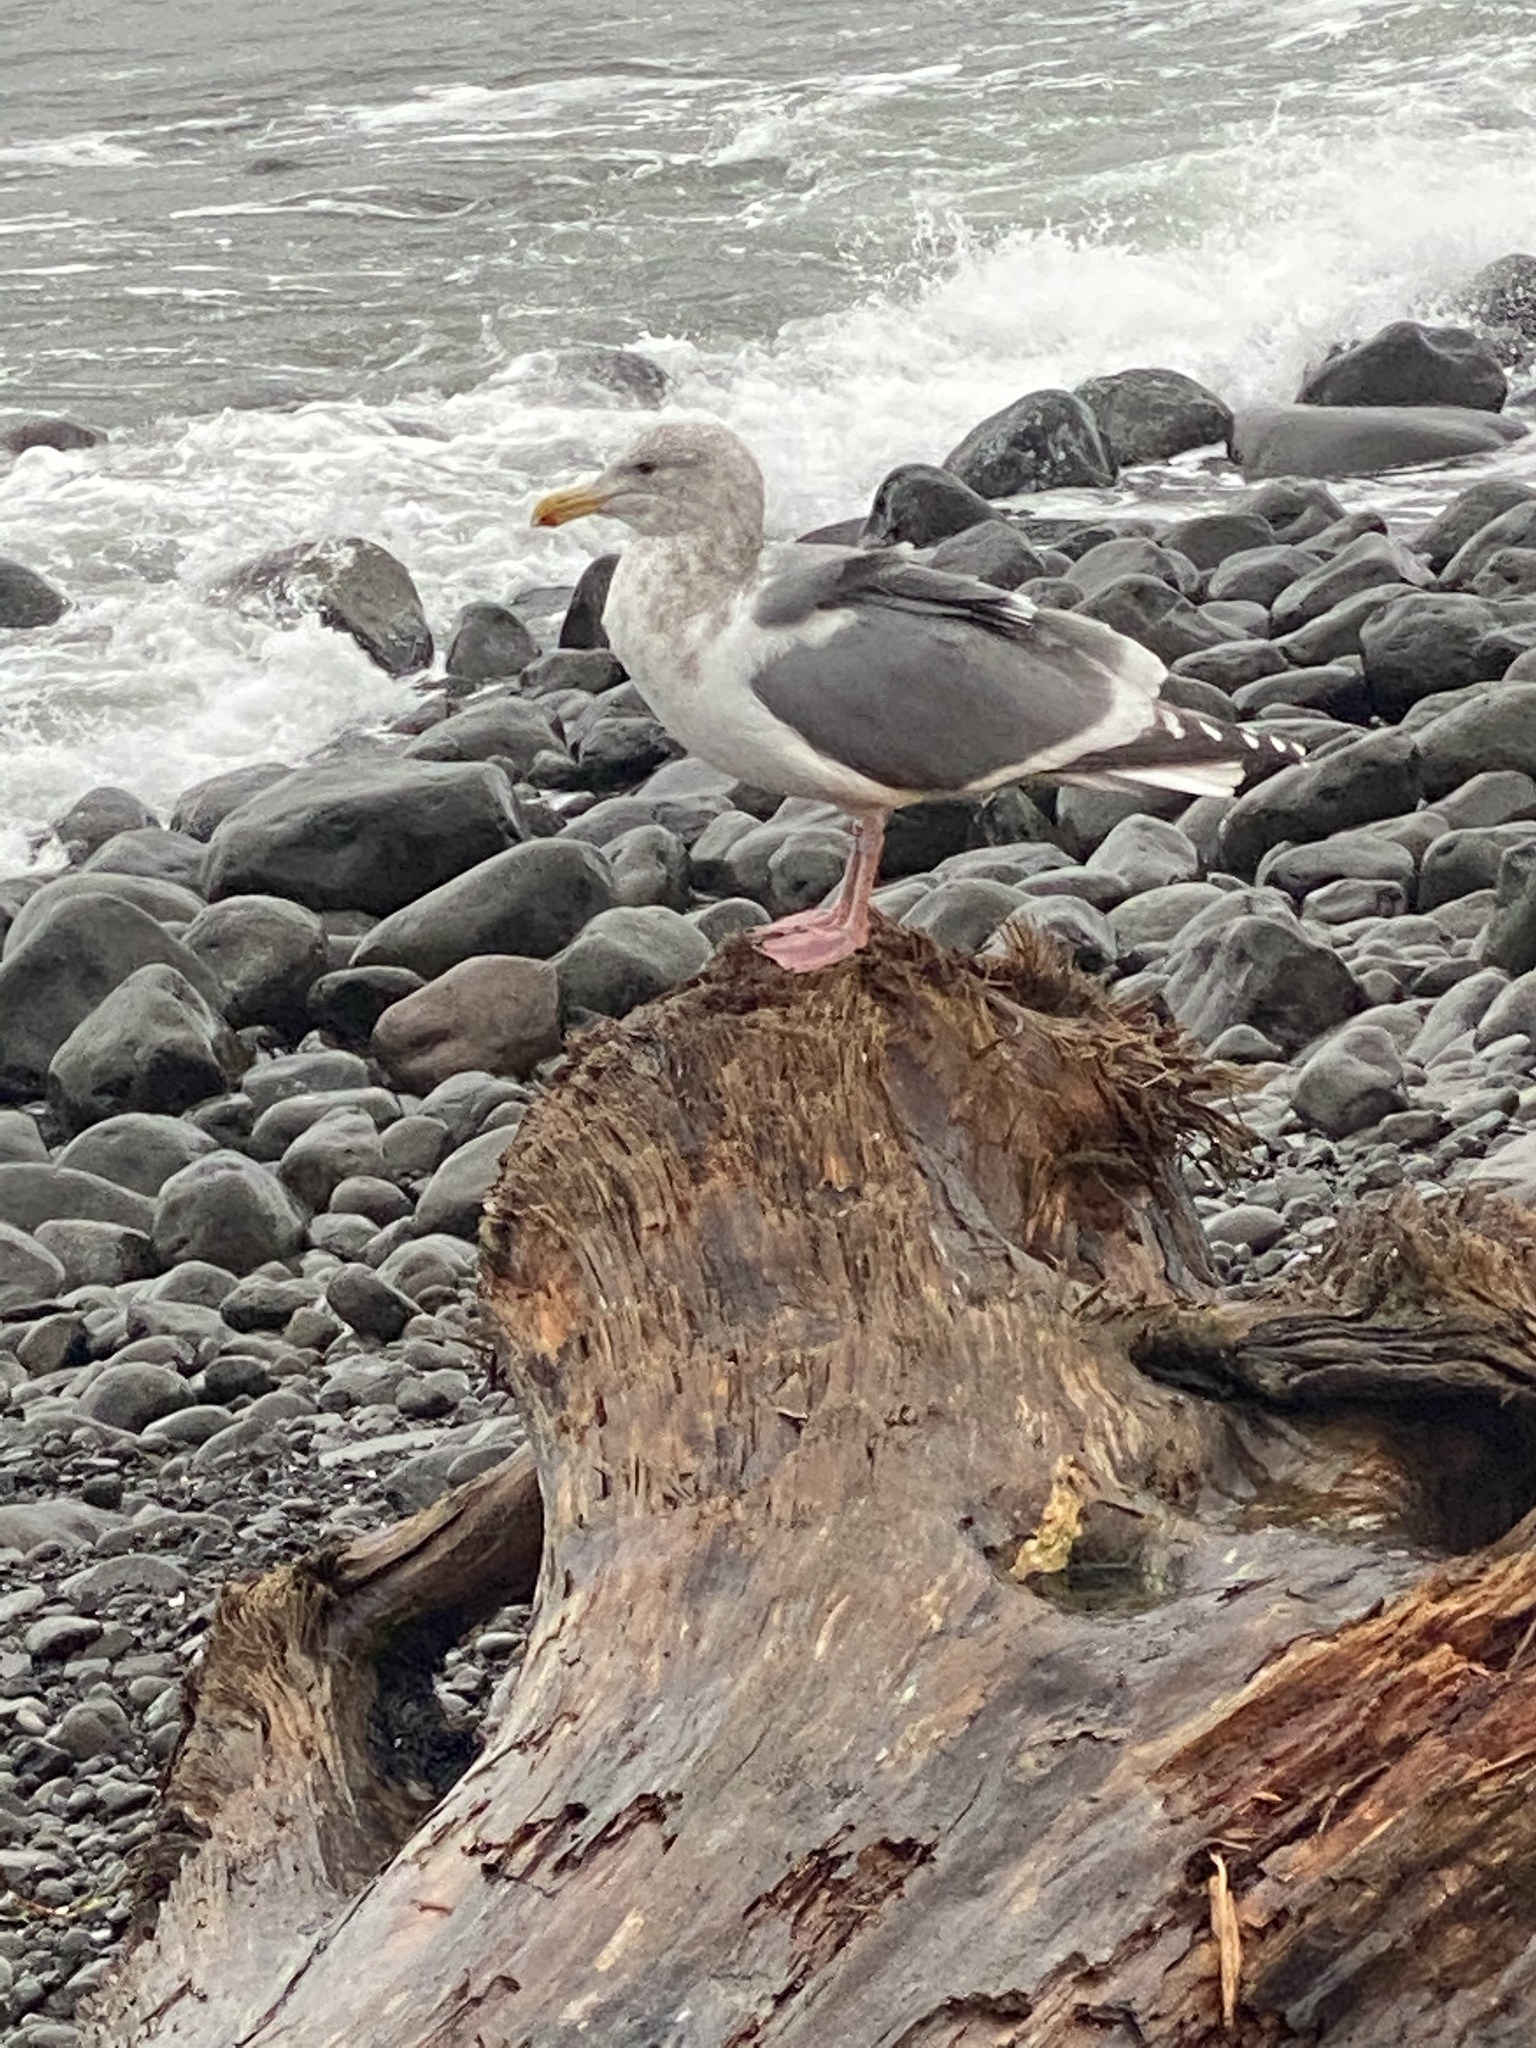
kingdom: Animalia
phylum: Chordata
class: Aves
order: Charadriiformes
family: Laridae
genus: Larus
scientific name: Larus
